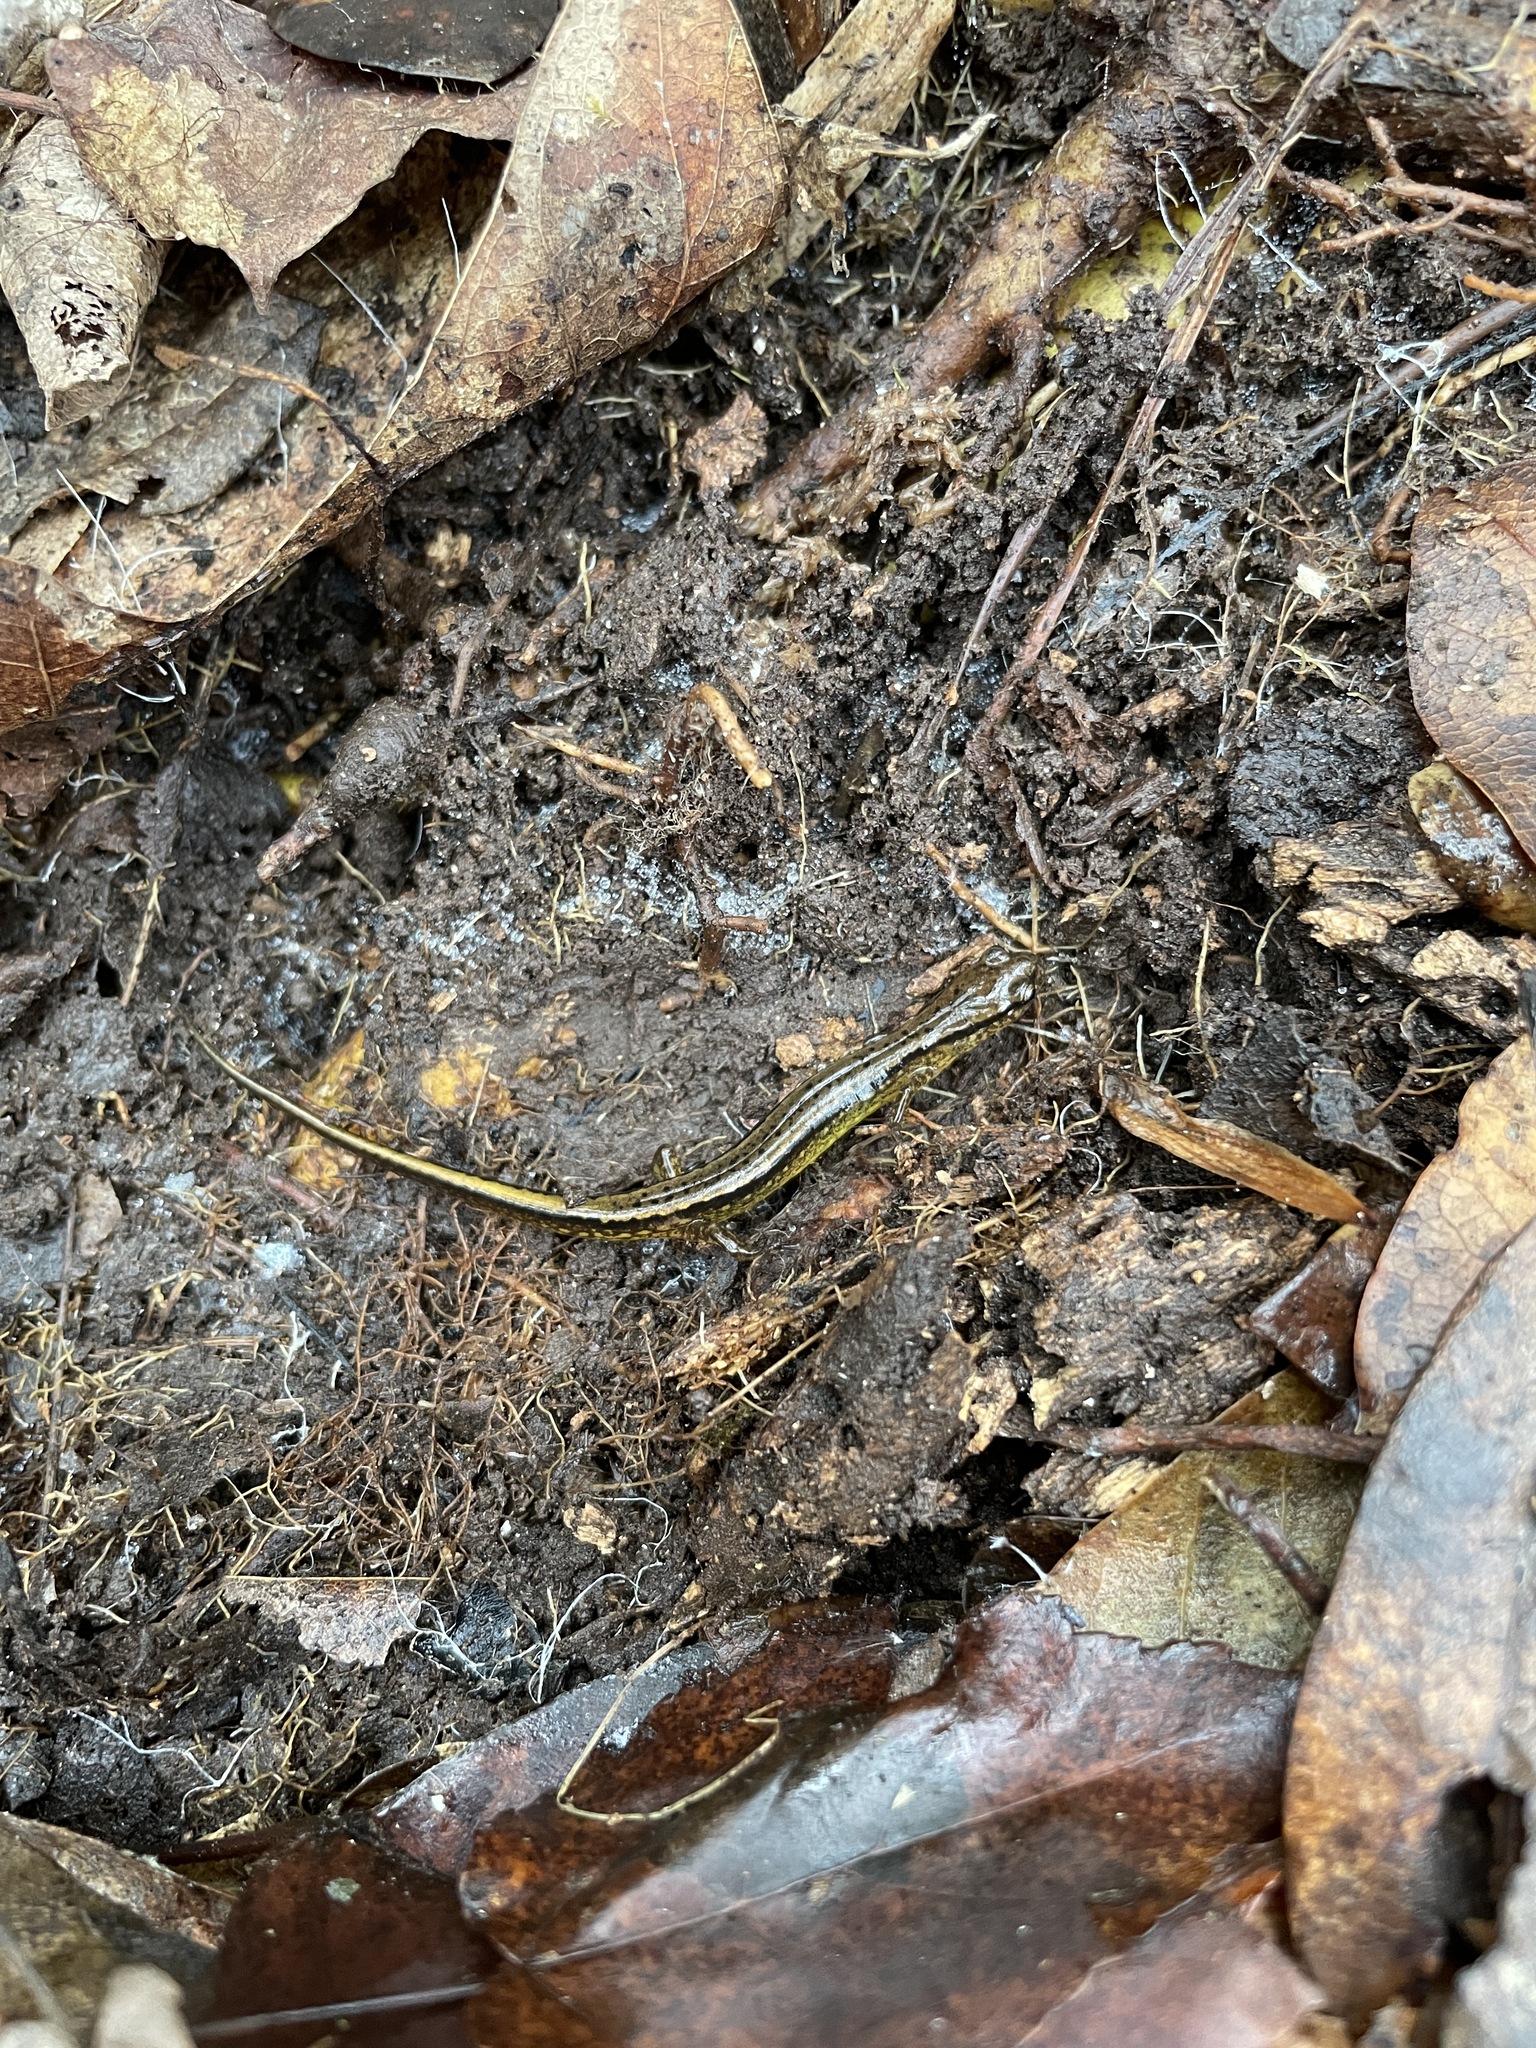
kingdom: Animalia
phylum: Chordata
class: Amphibia
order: Caudata
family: Plethodontidae
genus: Eurycea
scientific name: Eurycea cirrigera
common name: Southern two-lined salamander
